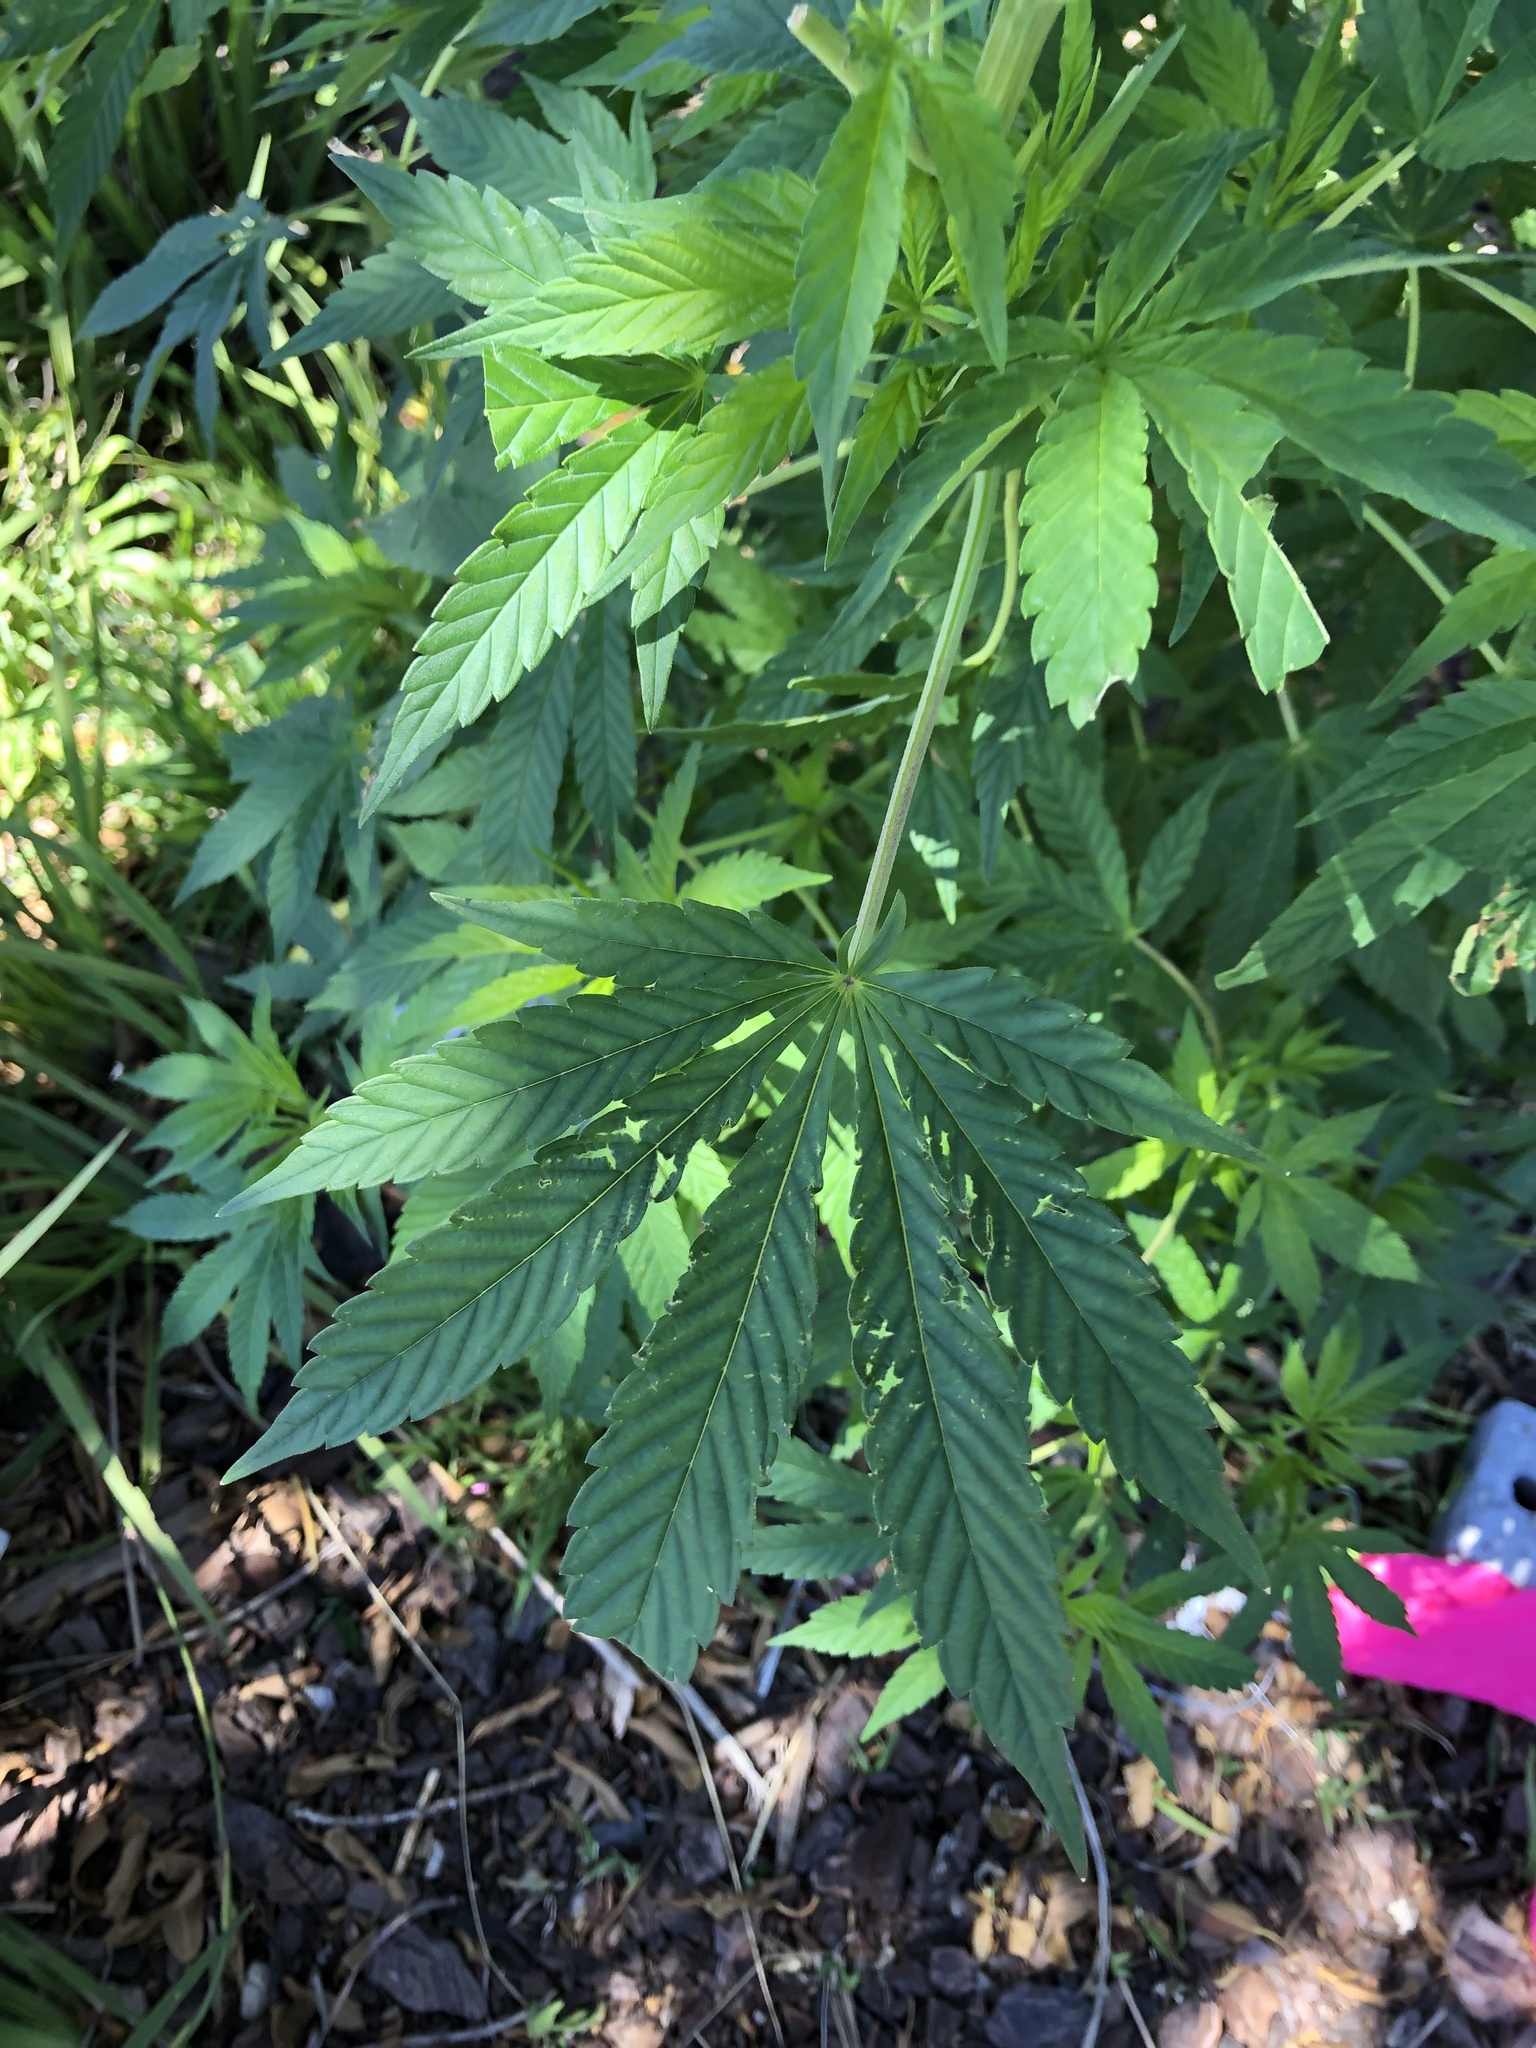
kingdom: Plantae
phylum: Tracheophyta
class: Magnoliopsida
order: Rosales
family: Cannabaceae
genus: Cannabis
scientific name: Cannabis sativa
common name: Hemp
